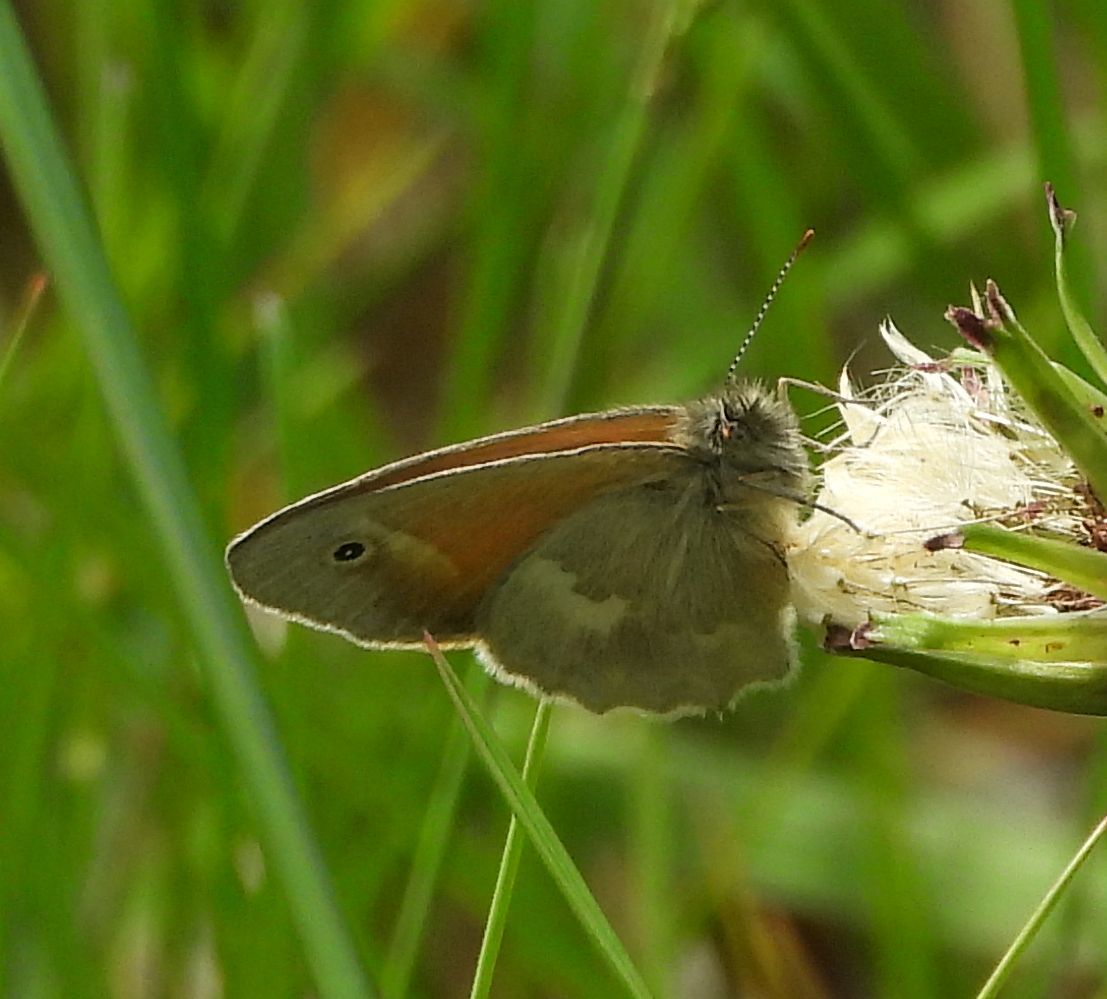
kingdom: Animalia
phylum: Arthropoda
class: Insecta
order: Lepidoptera
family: Nymphalidae
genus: Coenonympha
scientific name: Coenonympha california
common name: Common ringlet
